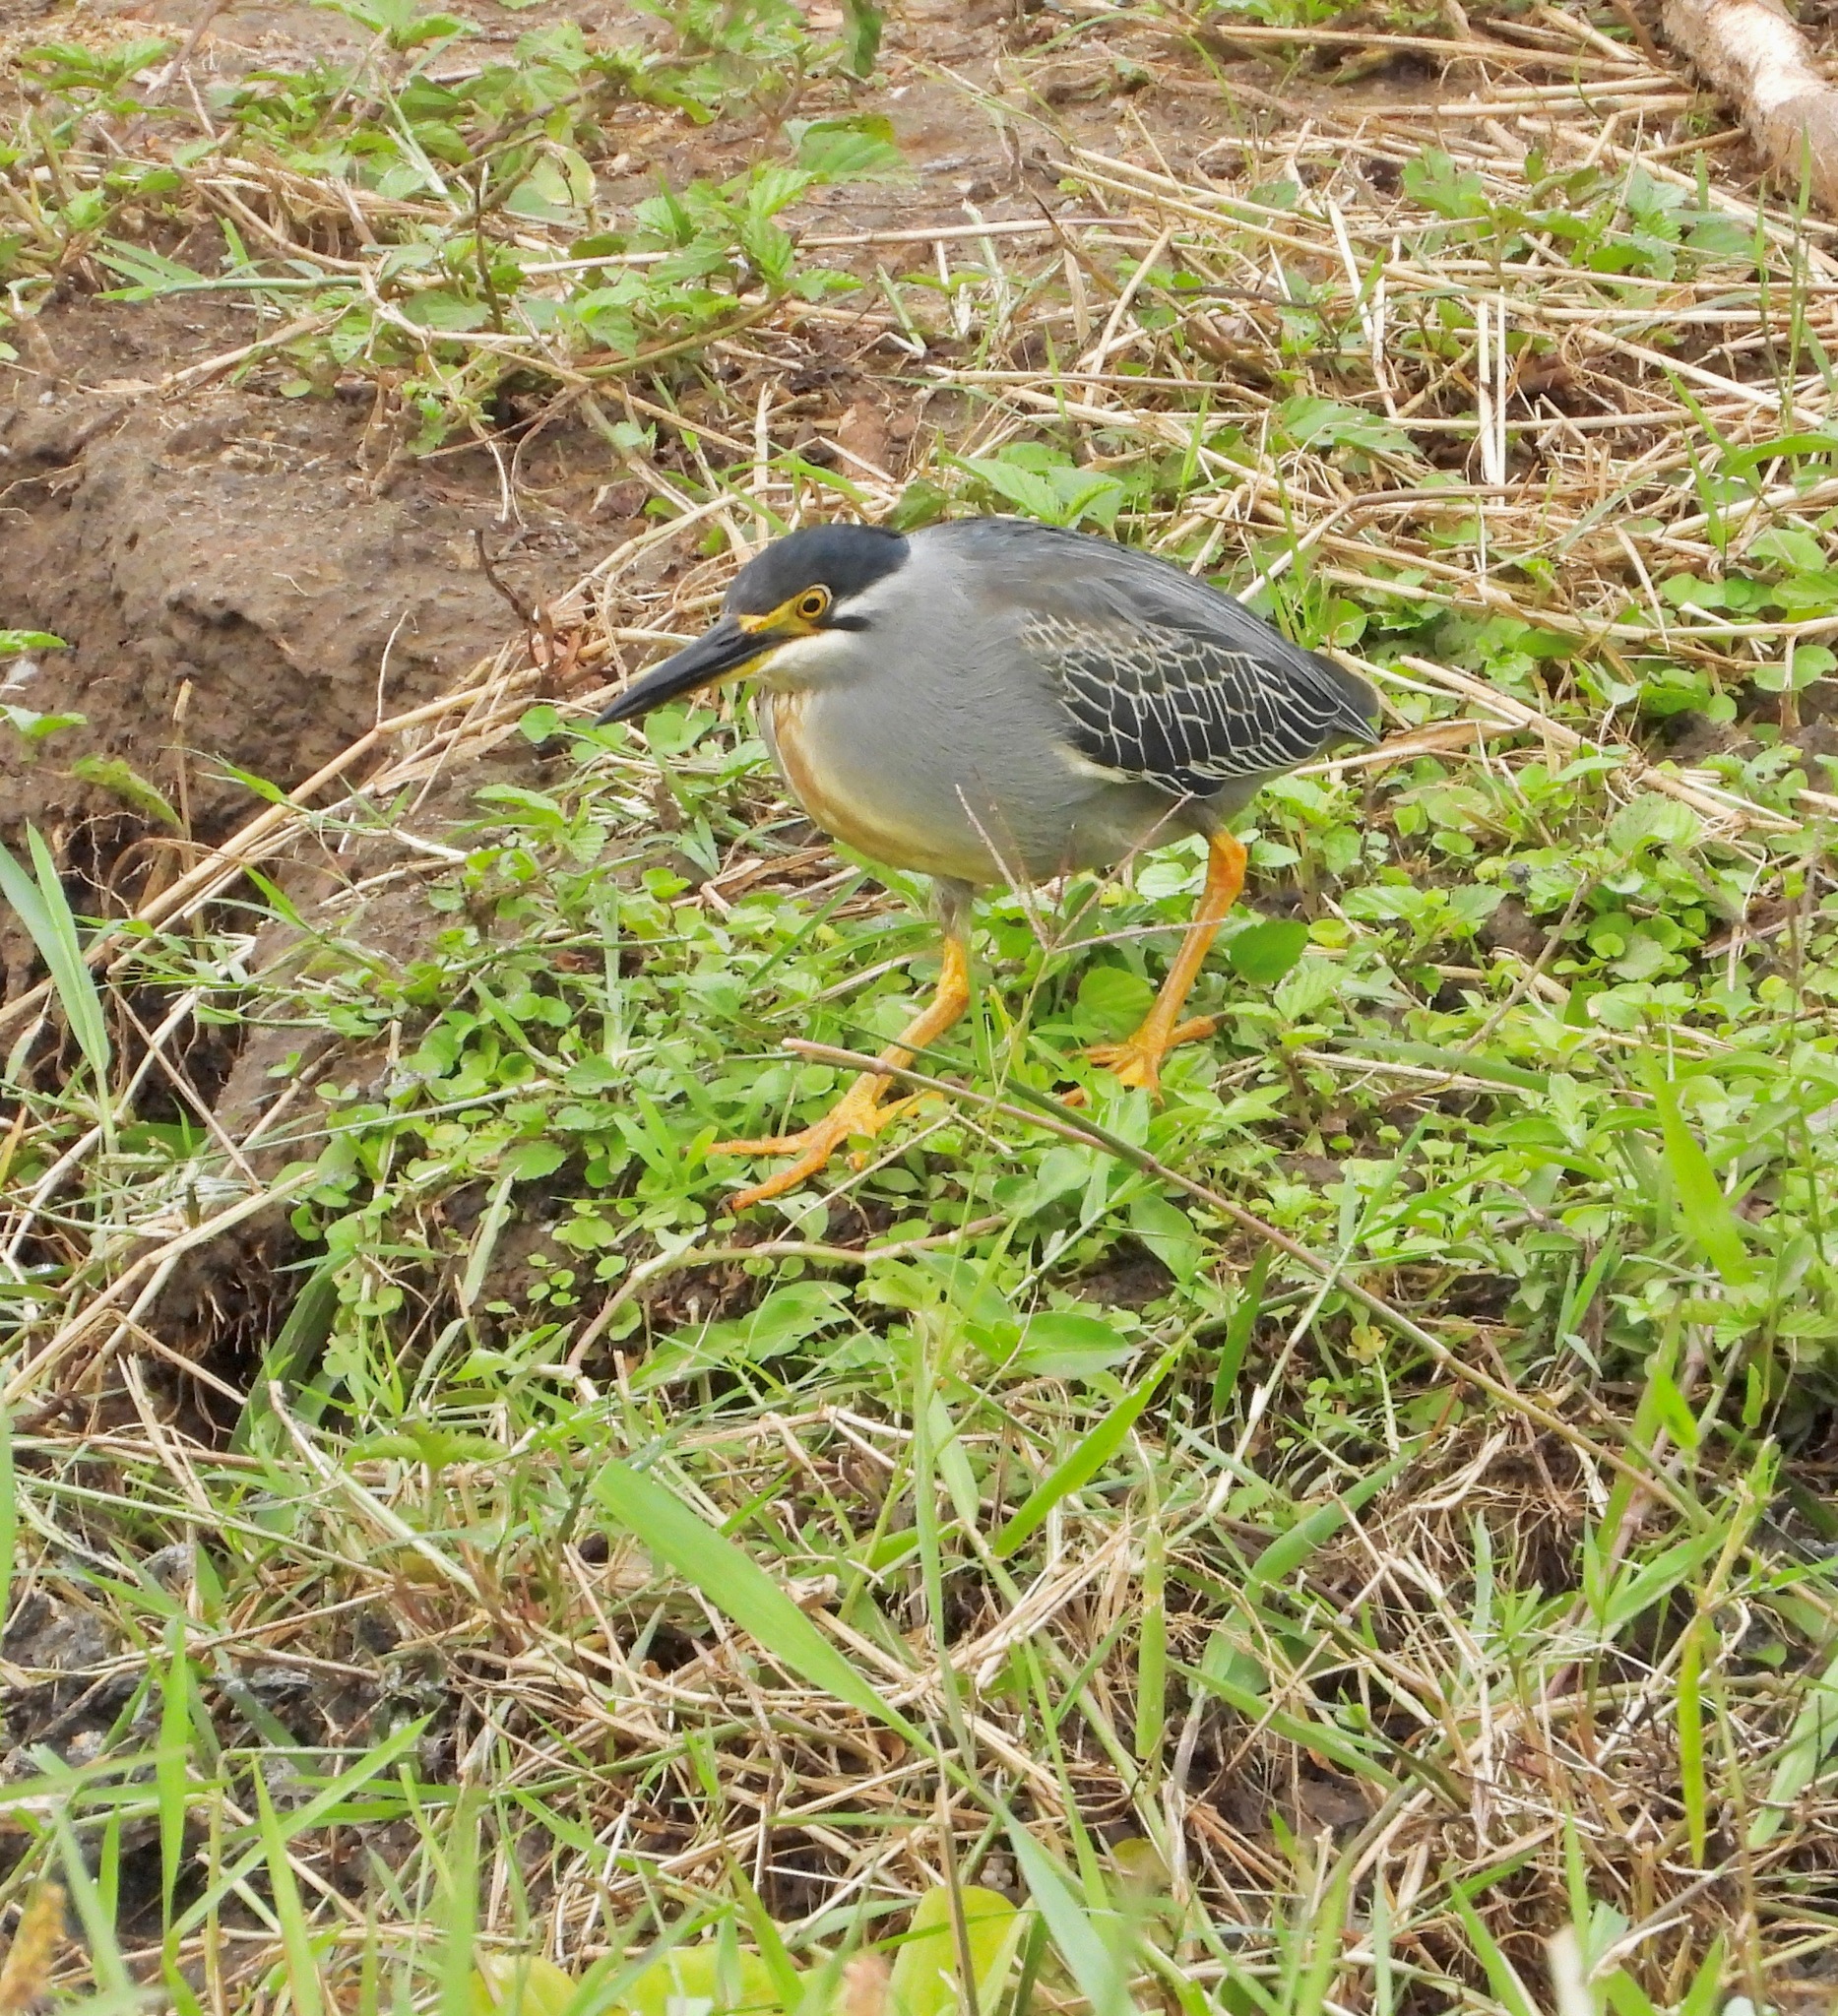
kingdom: Animalia
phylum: Chordata
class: Aves
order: Pelecaniformes
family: Ardeidae
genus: Butorides
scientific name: Butorides striata
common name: Striated heron
